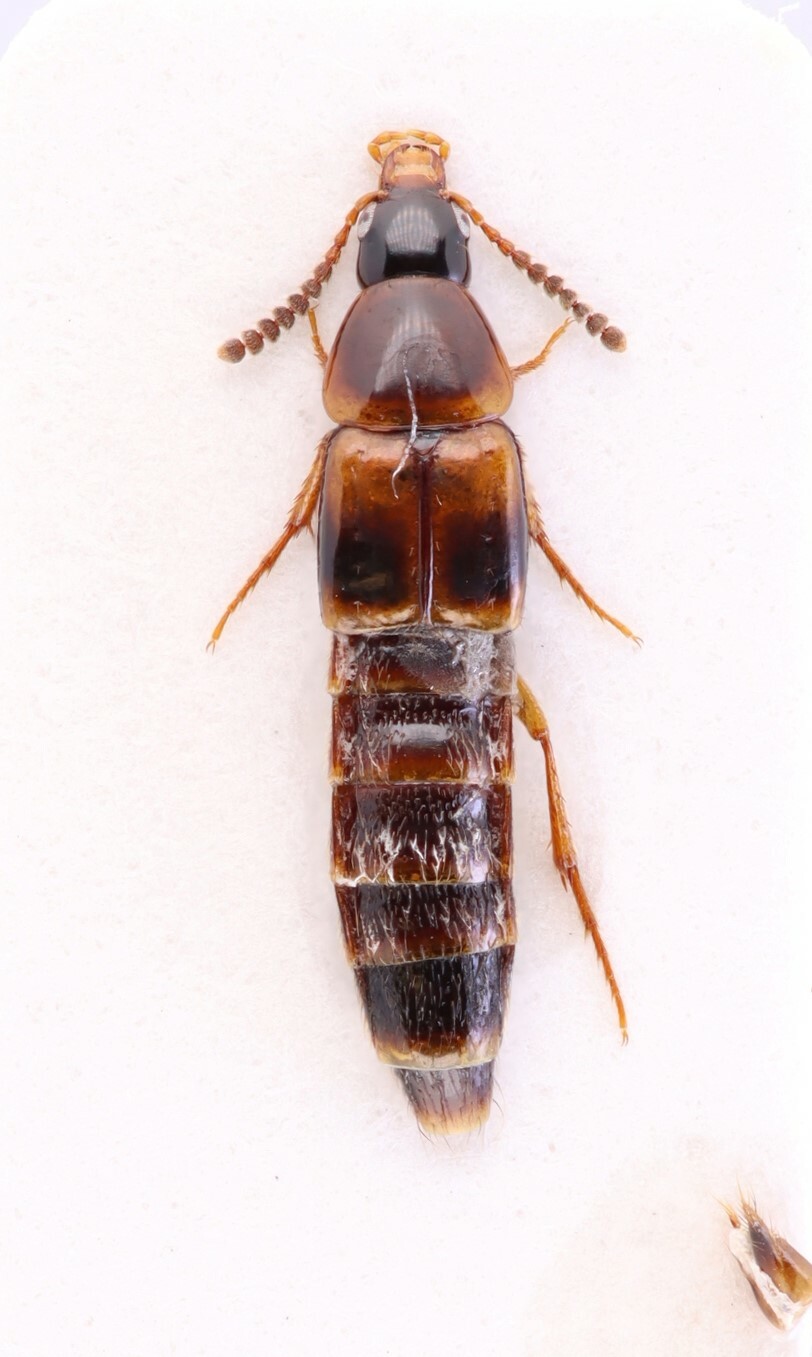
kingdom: Animalia
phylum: Arthropoda
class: Insecta
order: Coleoptera
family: Staphylinidae
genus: Carphacis
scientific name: Carphacis nepigonensis
